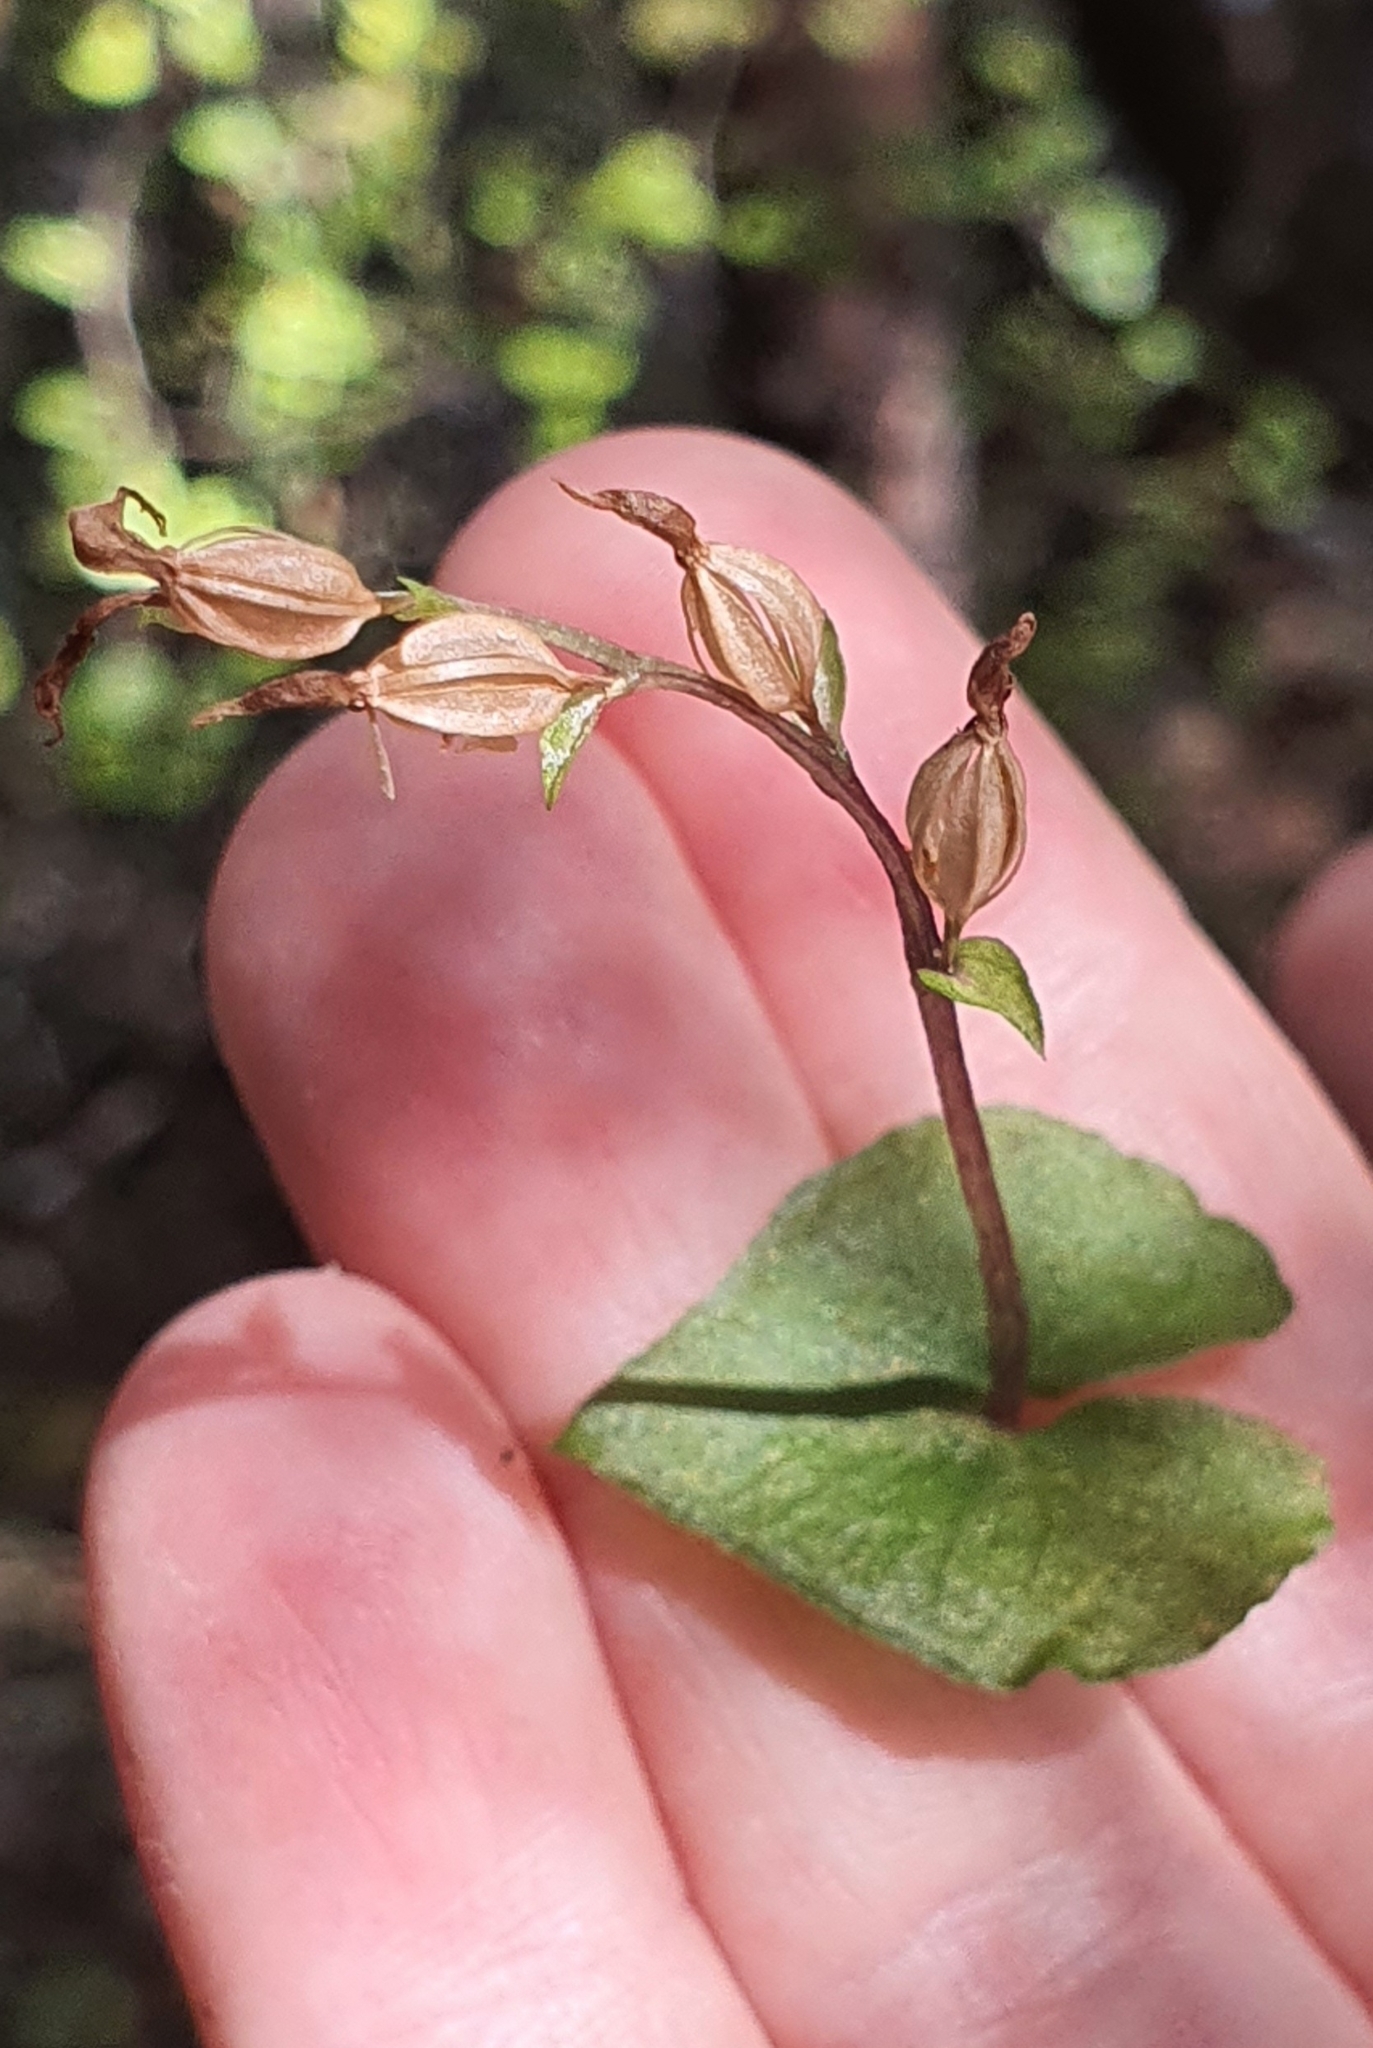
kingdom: Plantae
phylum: Tracheophyta
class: Liliopsida
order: Asparagales
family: Orchidaceae
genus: Acianthus
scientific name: Acianthus sinclairii
